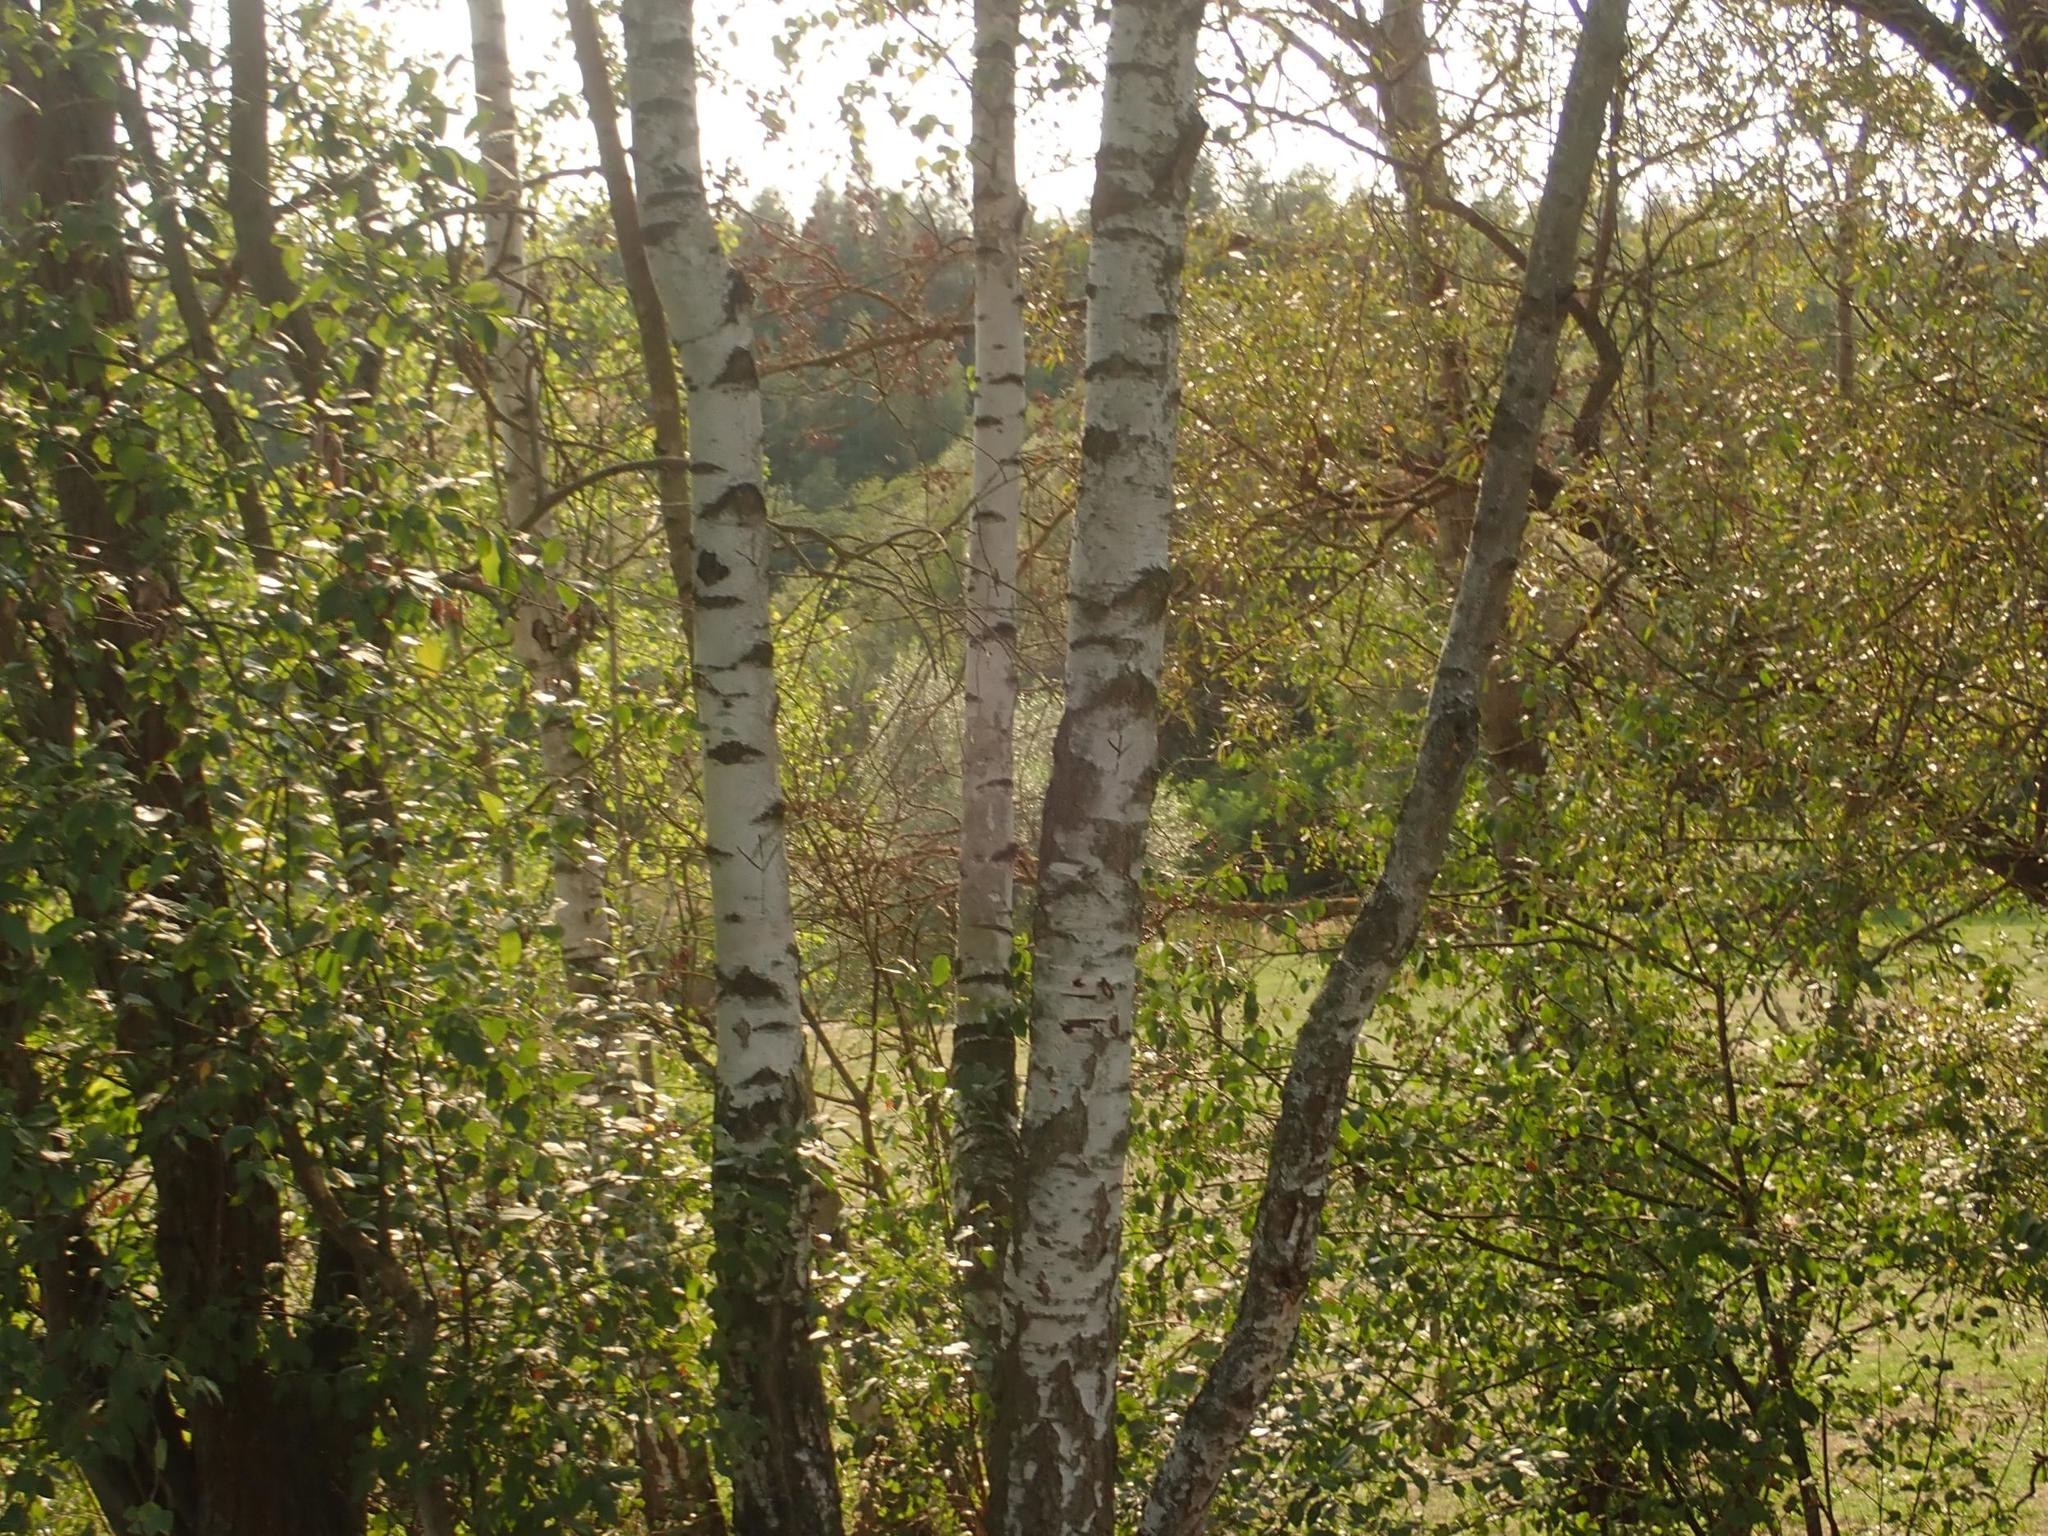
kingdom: Plantae
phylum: Tracheophyta
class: Magnoliopsida
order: Fagales
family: Betulaceae
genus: Betula
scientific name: Betula pendula
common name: Silver birch
